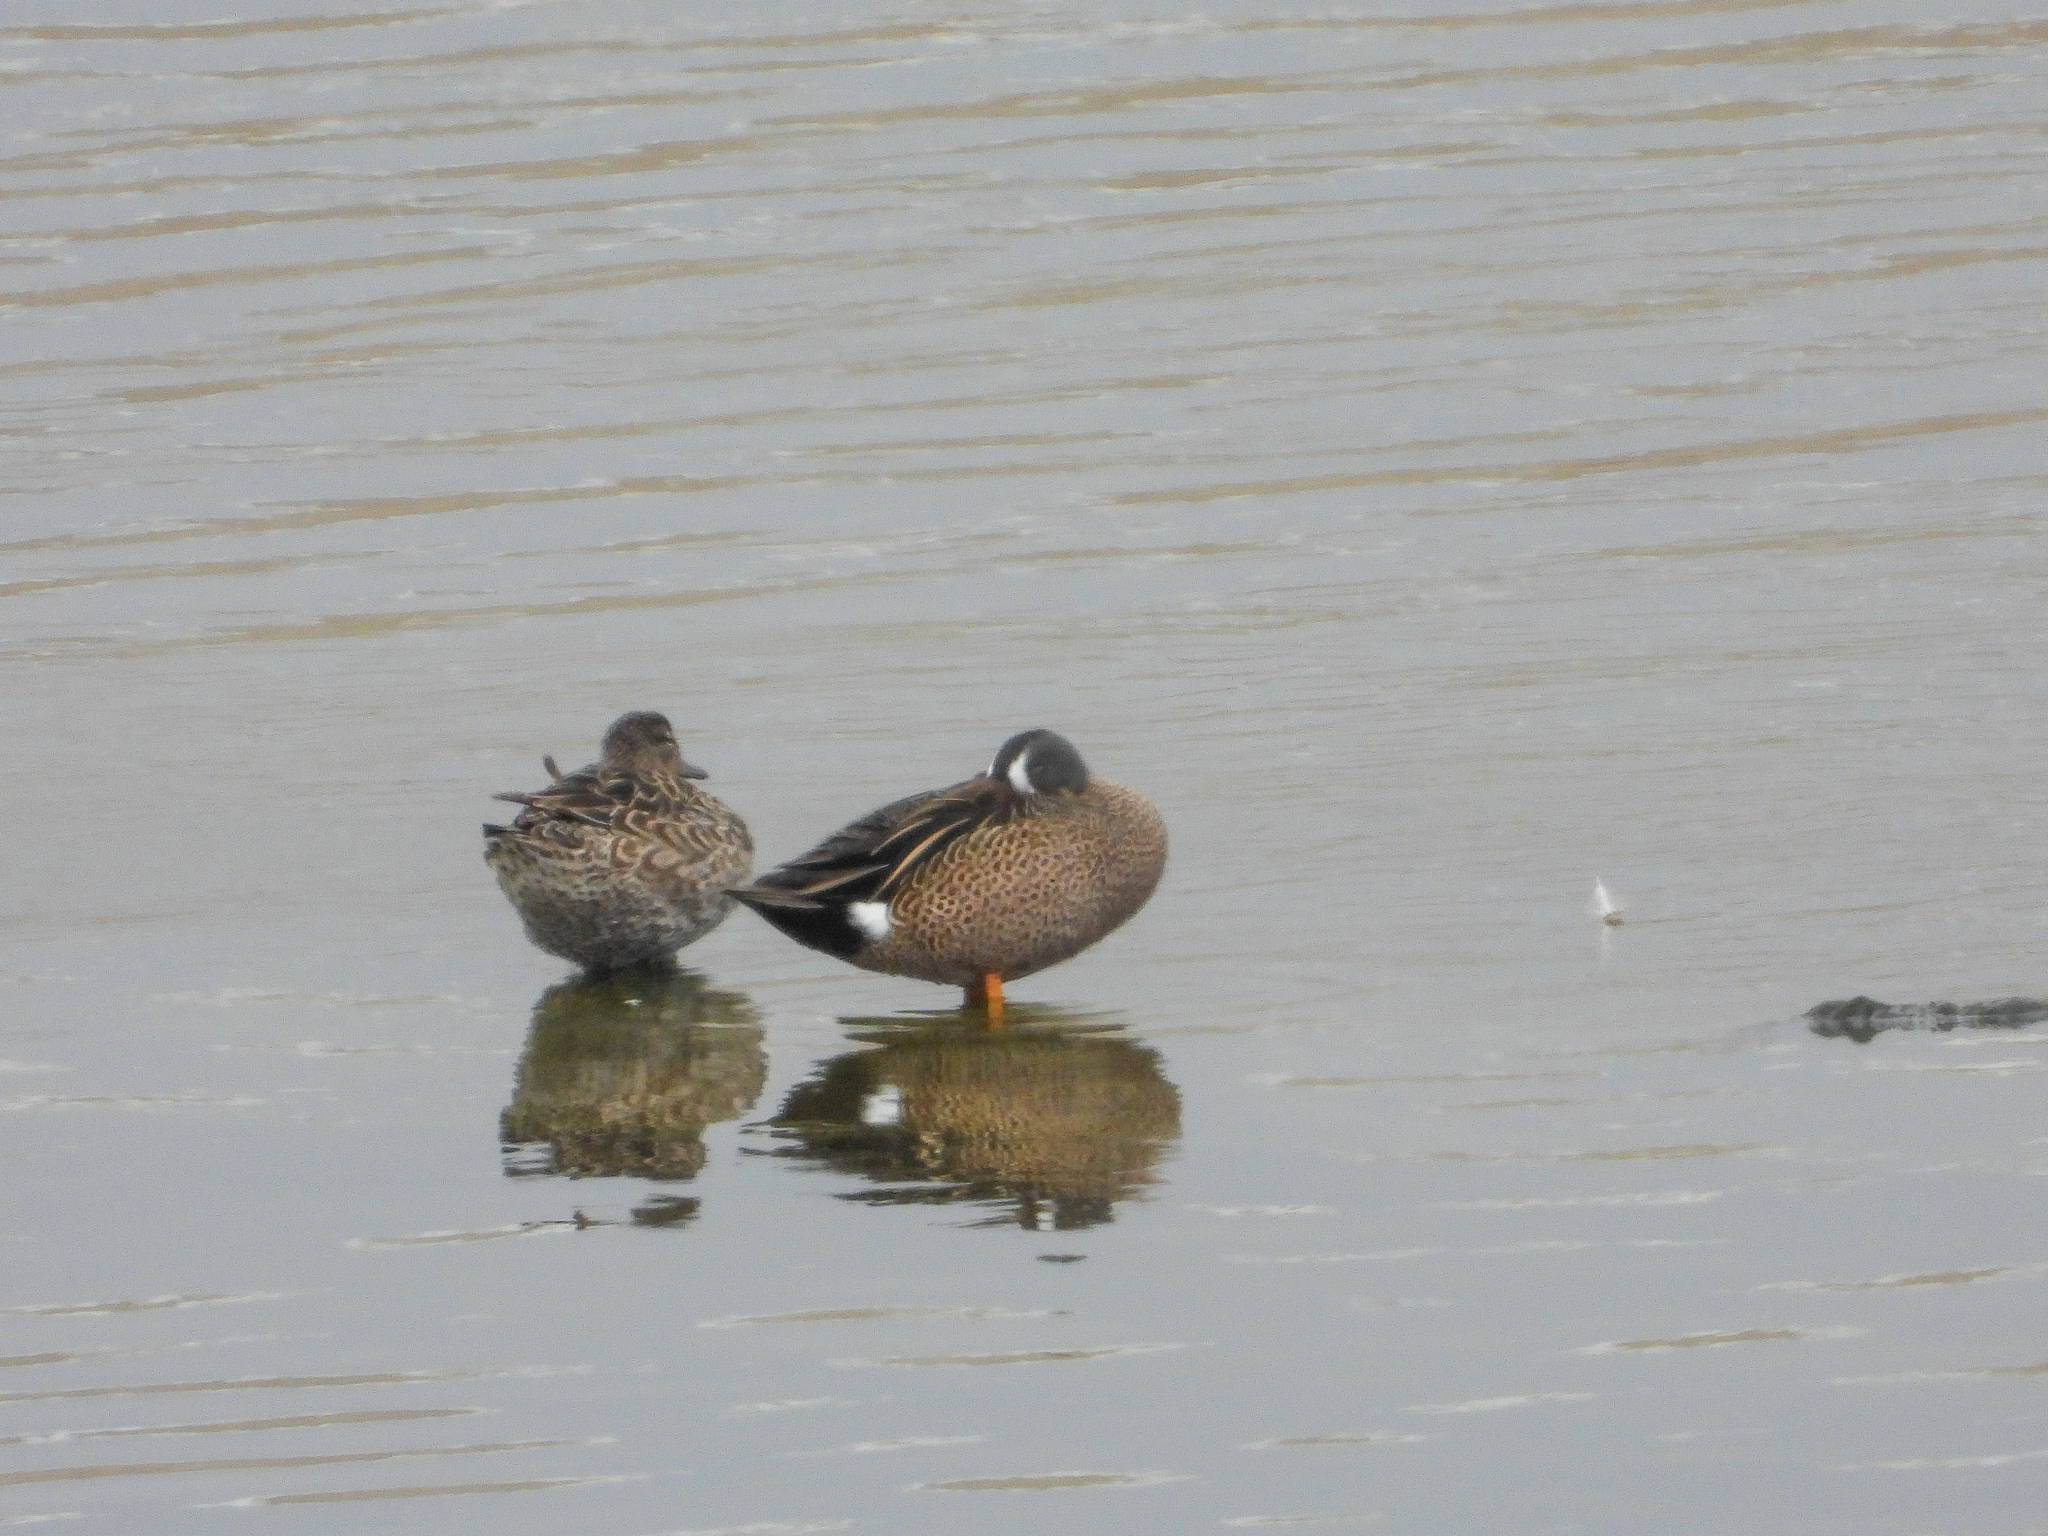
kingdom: Animalia
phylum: Chordata
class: Aves
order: Anseriformes
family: Anatidae
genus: Spatula
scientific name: Spatula discors
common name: Blue-winged teal
